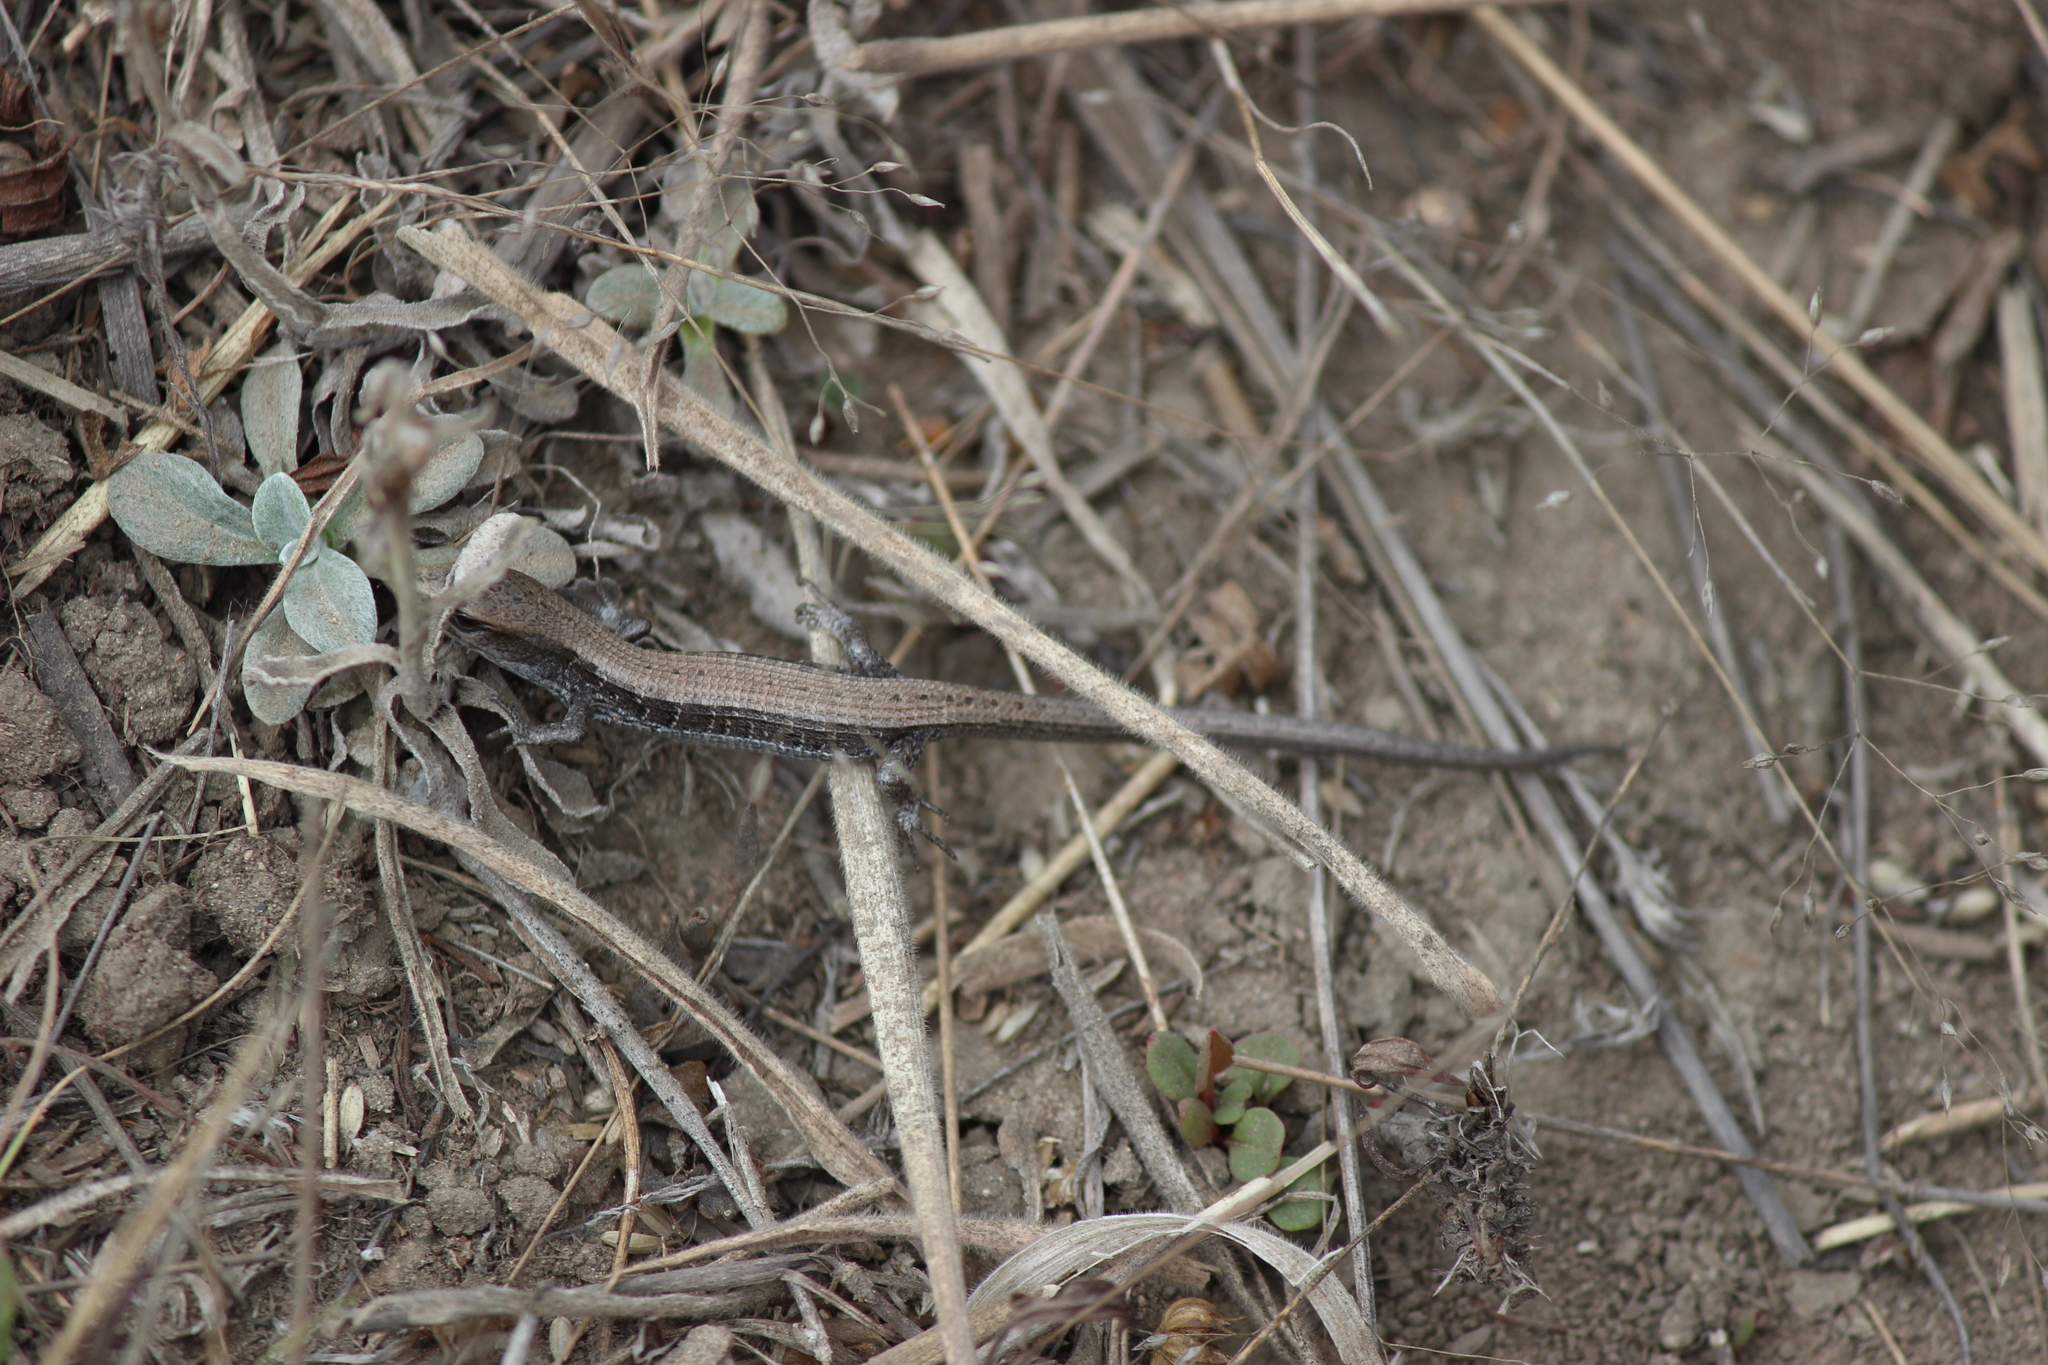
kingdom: Animalia
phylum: Chordata
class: Squamata
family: Anguidae
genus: Elgaria
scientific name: Elgaria coerulea
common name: Northern alligator lizard
